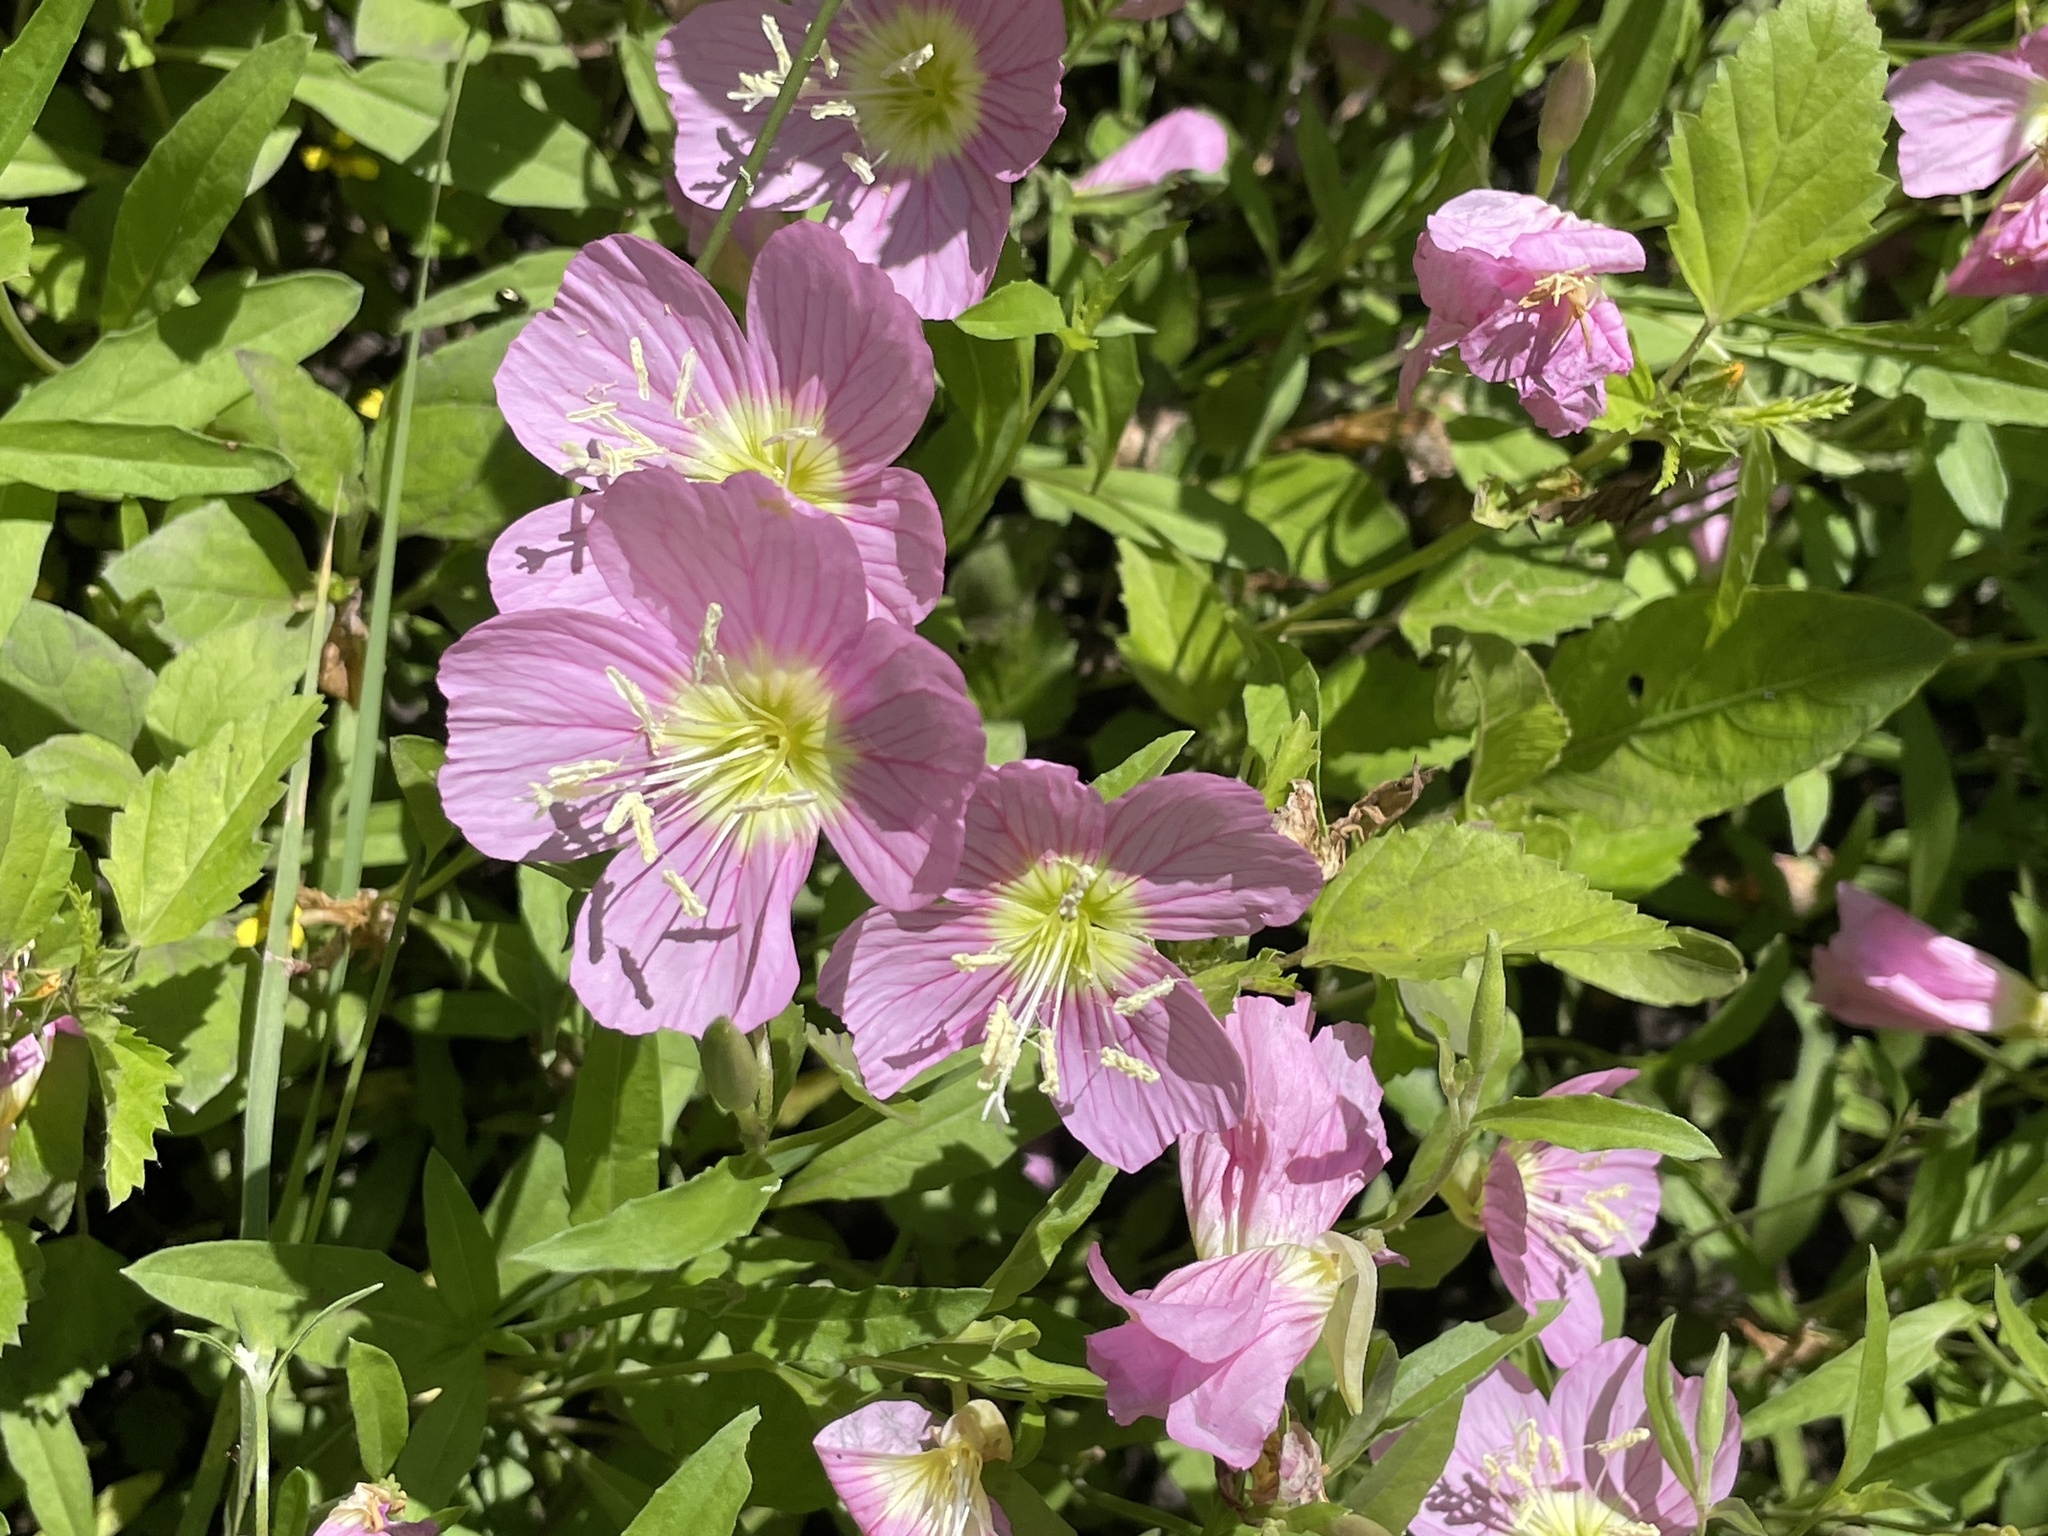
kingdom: Plantae
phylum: Tracheophyta
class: Magnoliopsida
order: Myrtales
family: Onagraceae
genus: Oenothera
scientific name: Oenothera speciosa
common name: White evening-primrose
